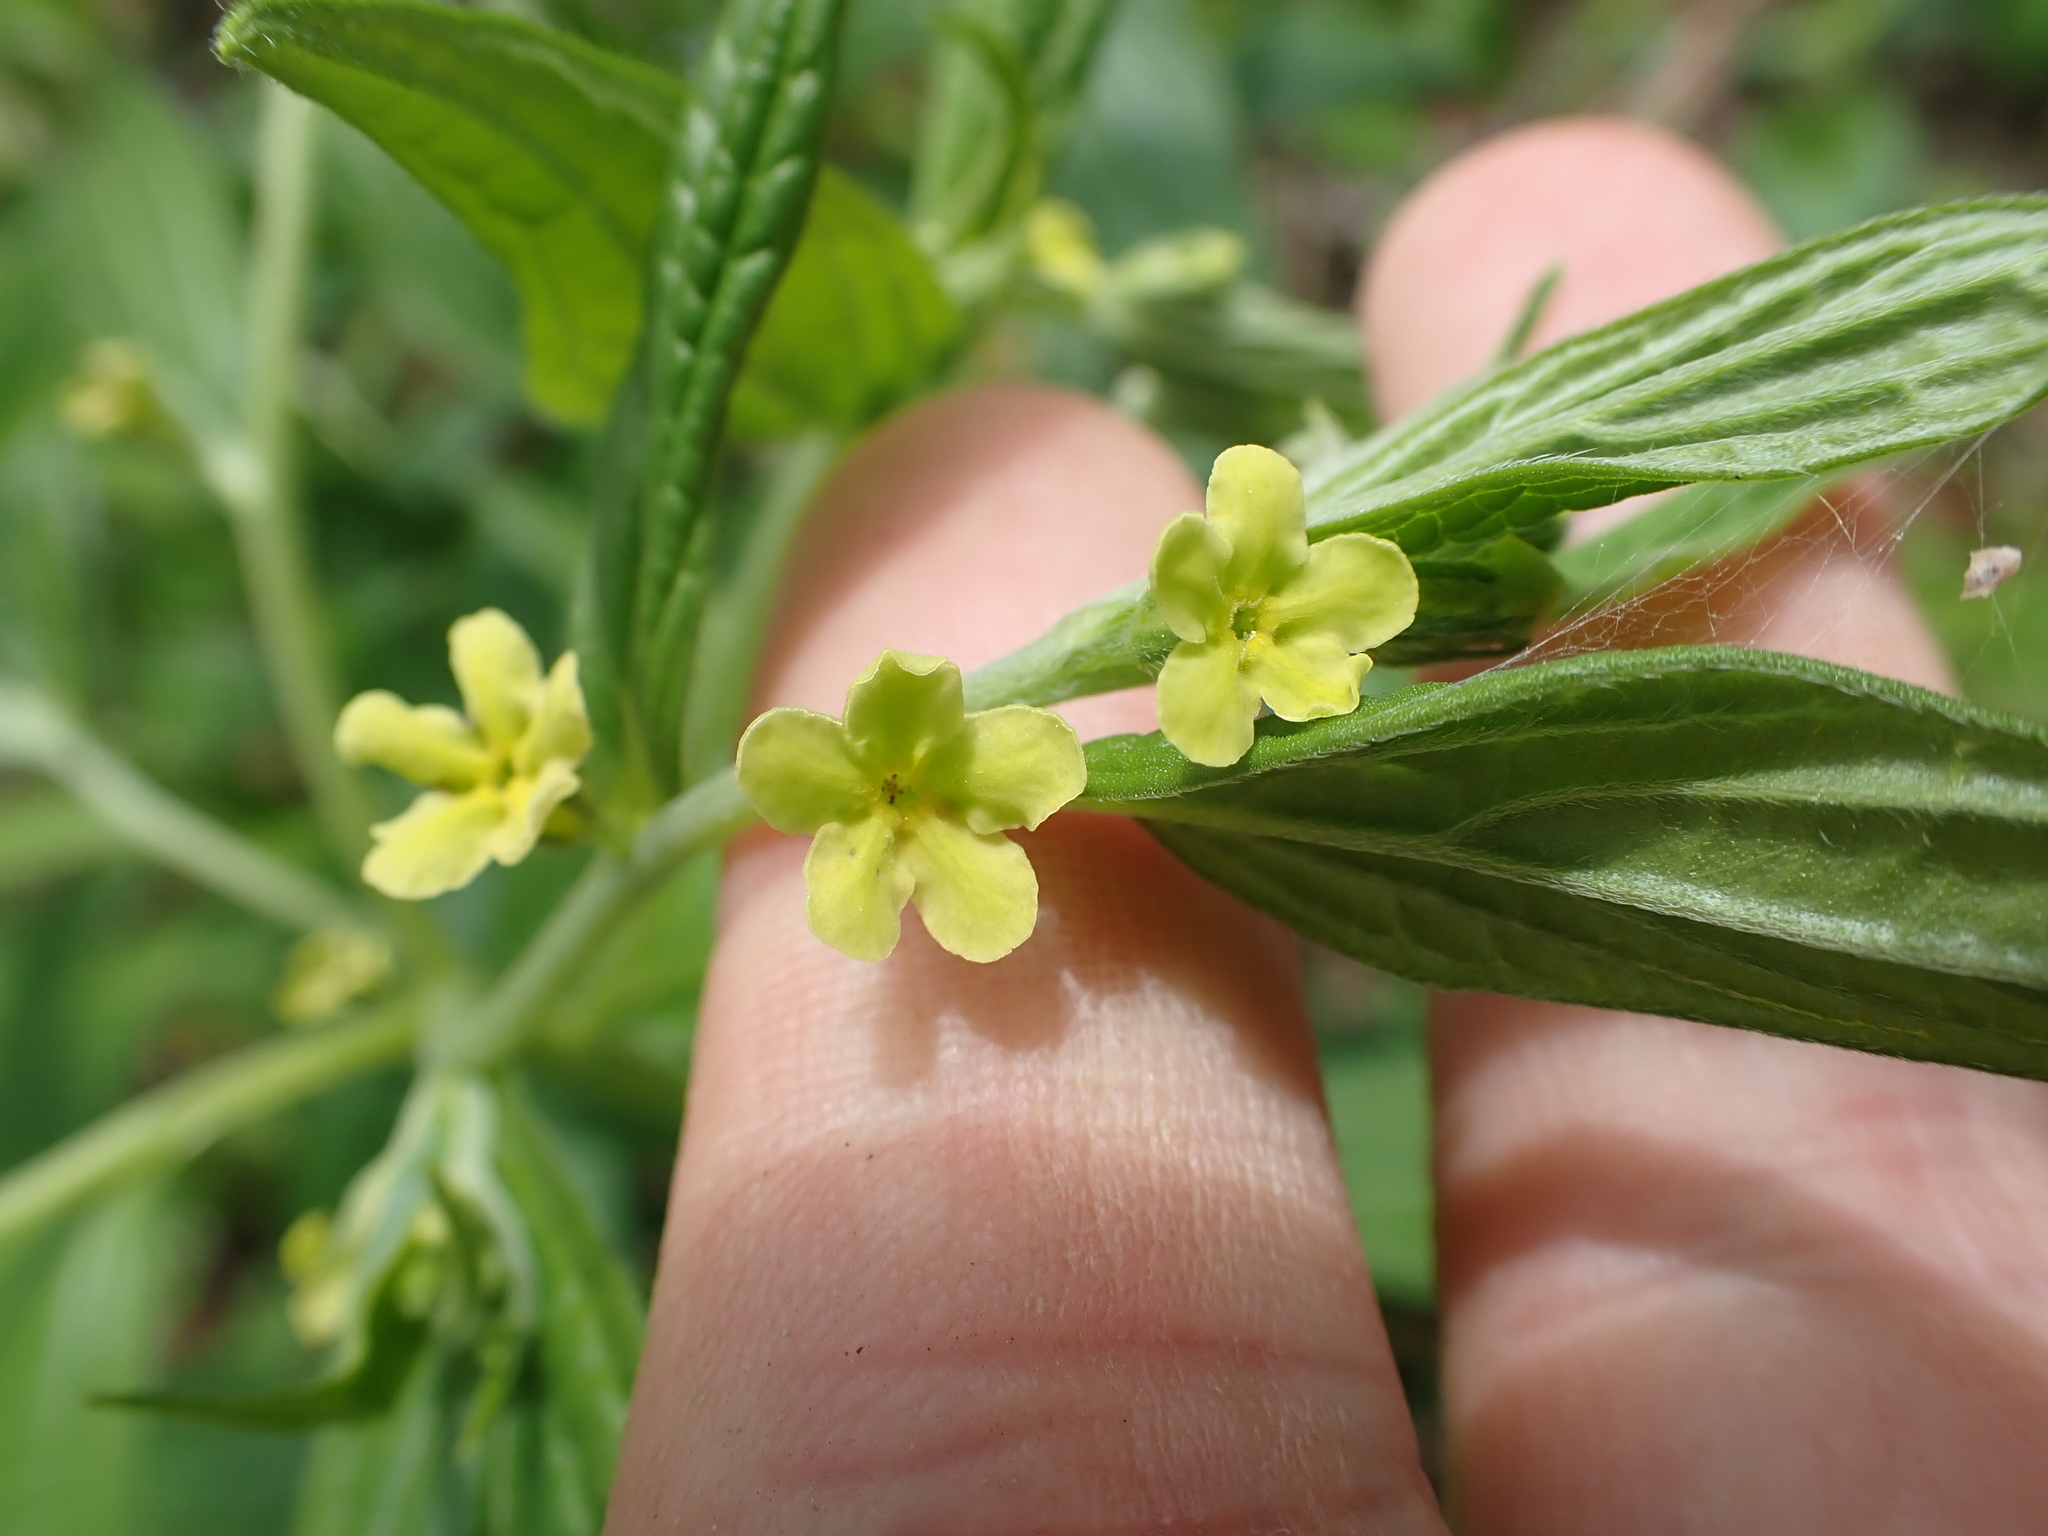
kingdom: Plantae
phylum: Tracheophyta
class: Magnoliopsida
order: Boraginales
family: Boraginaceae
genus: Lithospermum
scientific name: Lithospermum latifolium
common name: American gromwell
